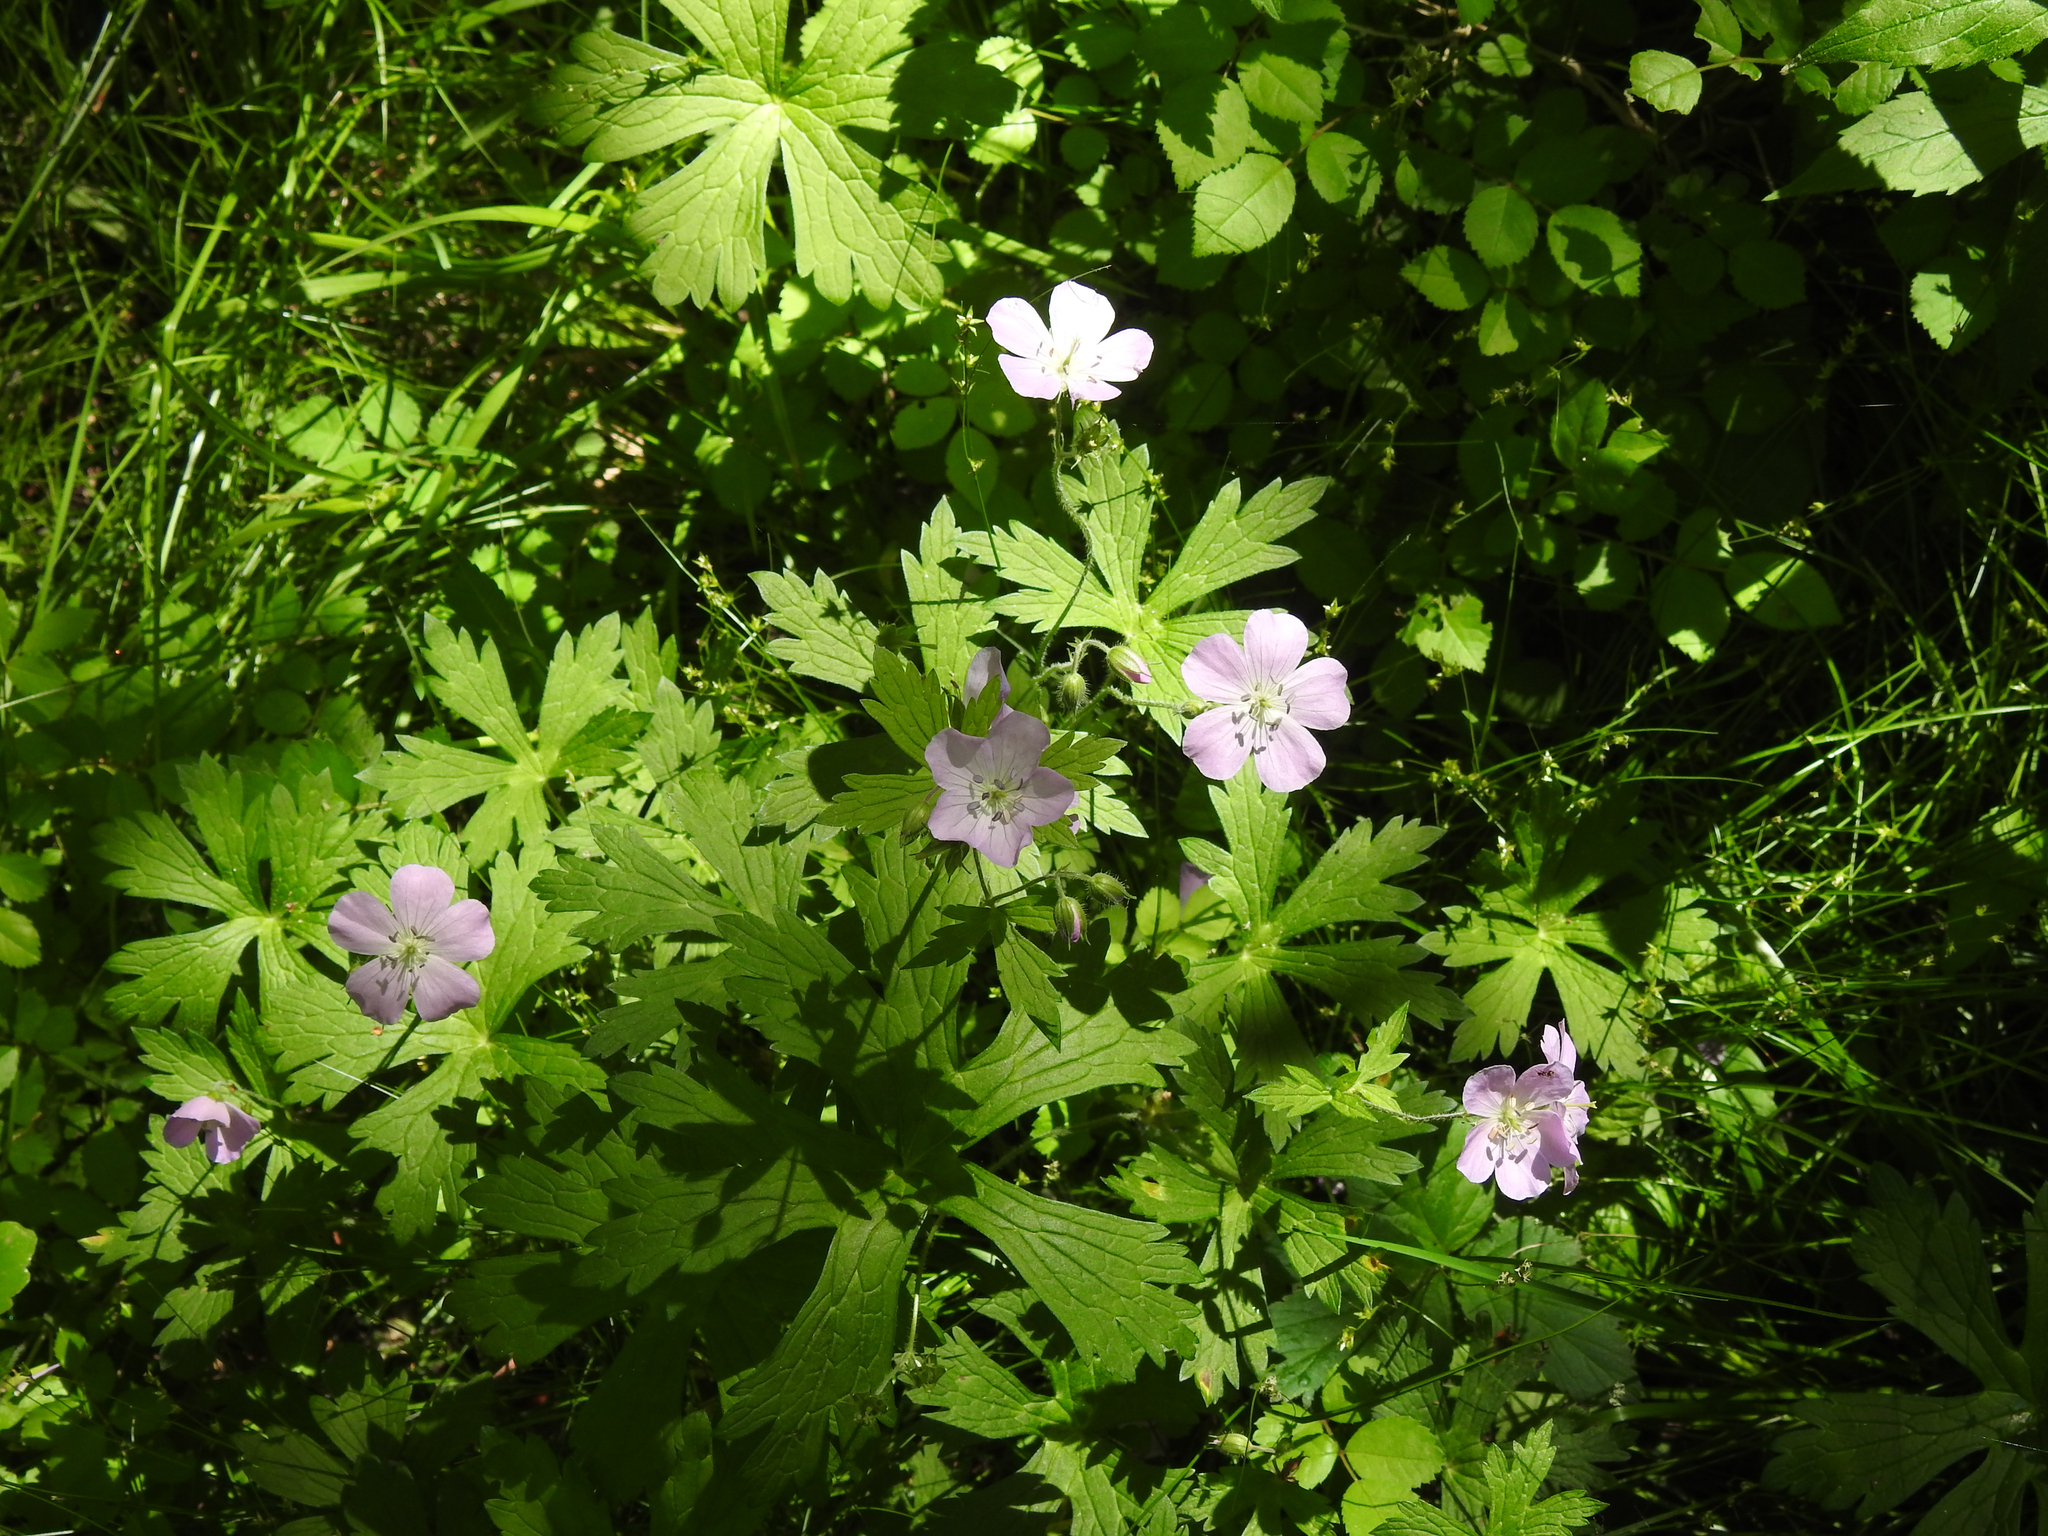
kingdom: Plantae
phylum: Tracheophyta
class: Magnoliopsida
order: Geraniales
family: Geraniaceae
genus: Geranium
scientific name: Geranium maculatum
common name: Spotted geranium
